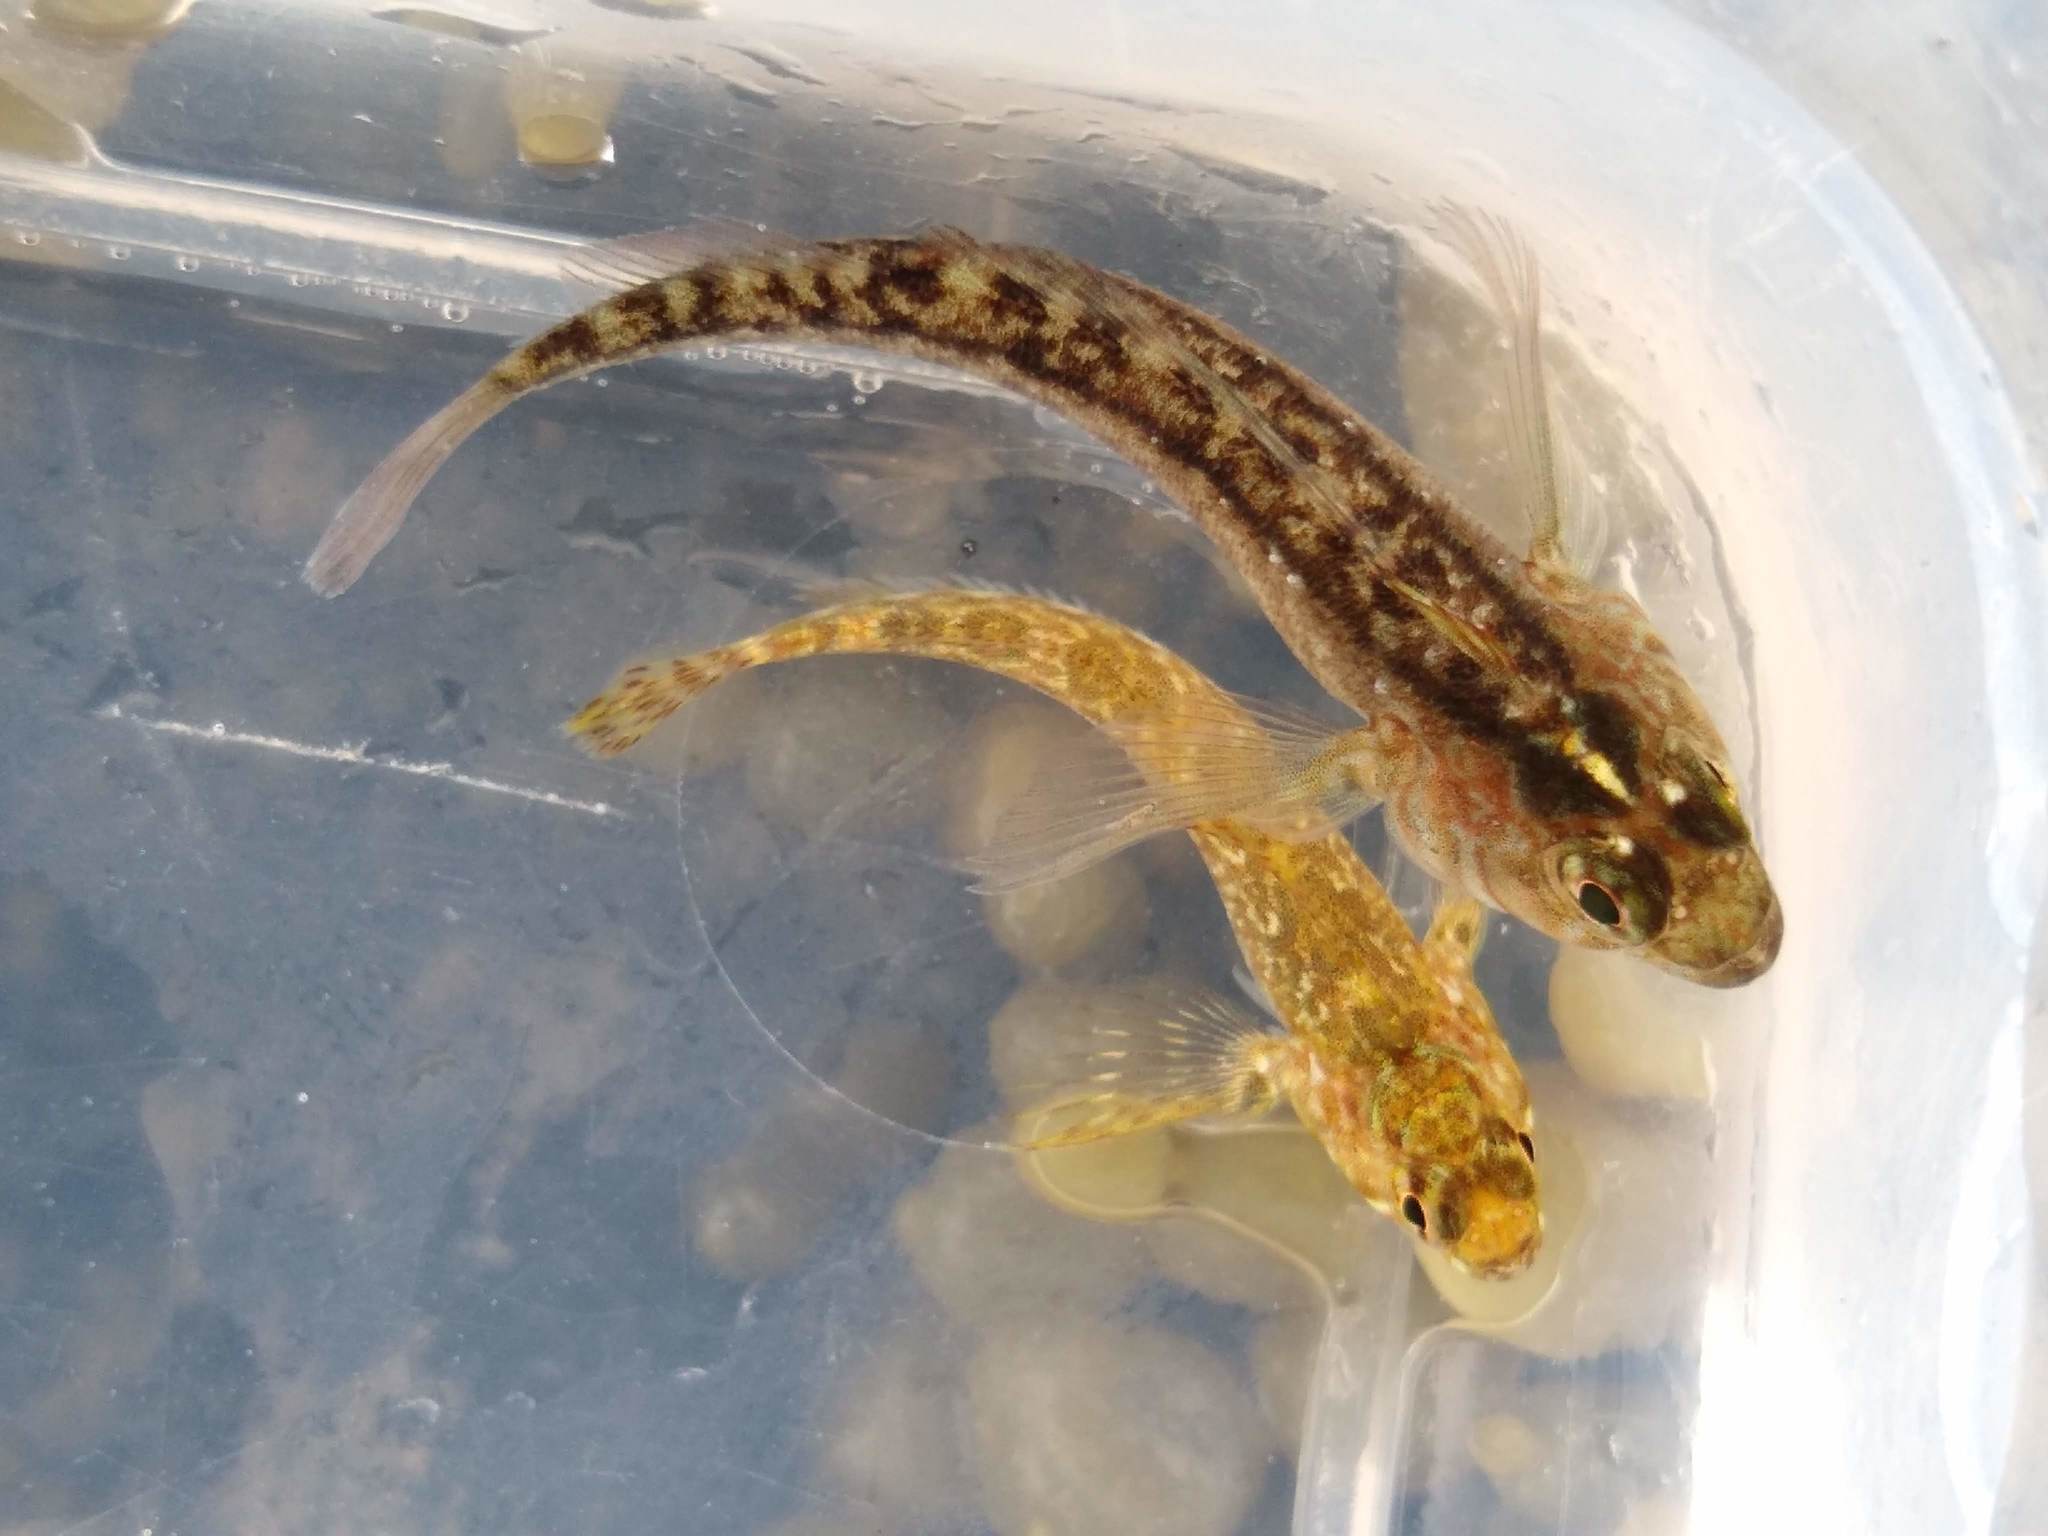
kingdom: Animalia
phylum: Chordata
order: Perciformes
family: Tripterygiidae
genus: Forsterygion
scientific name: Forsterygion lapillum
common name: Common triplefin
